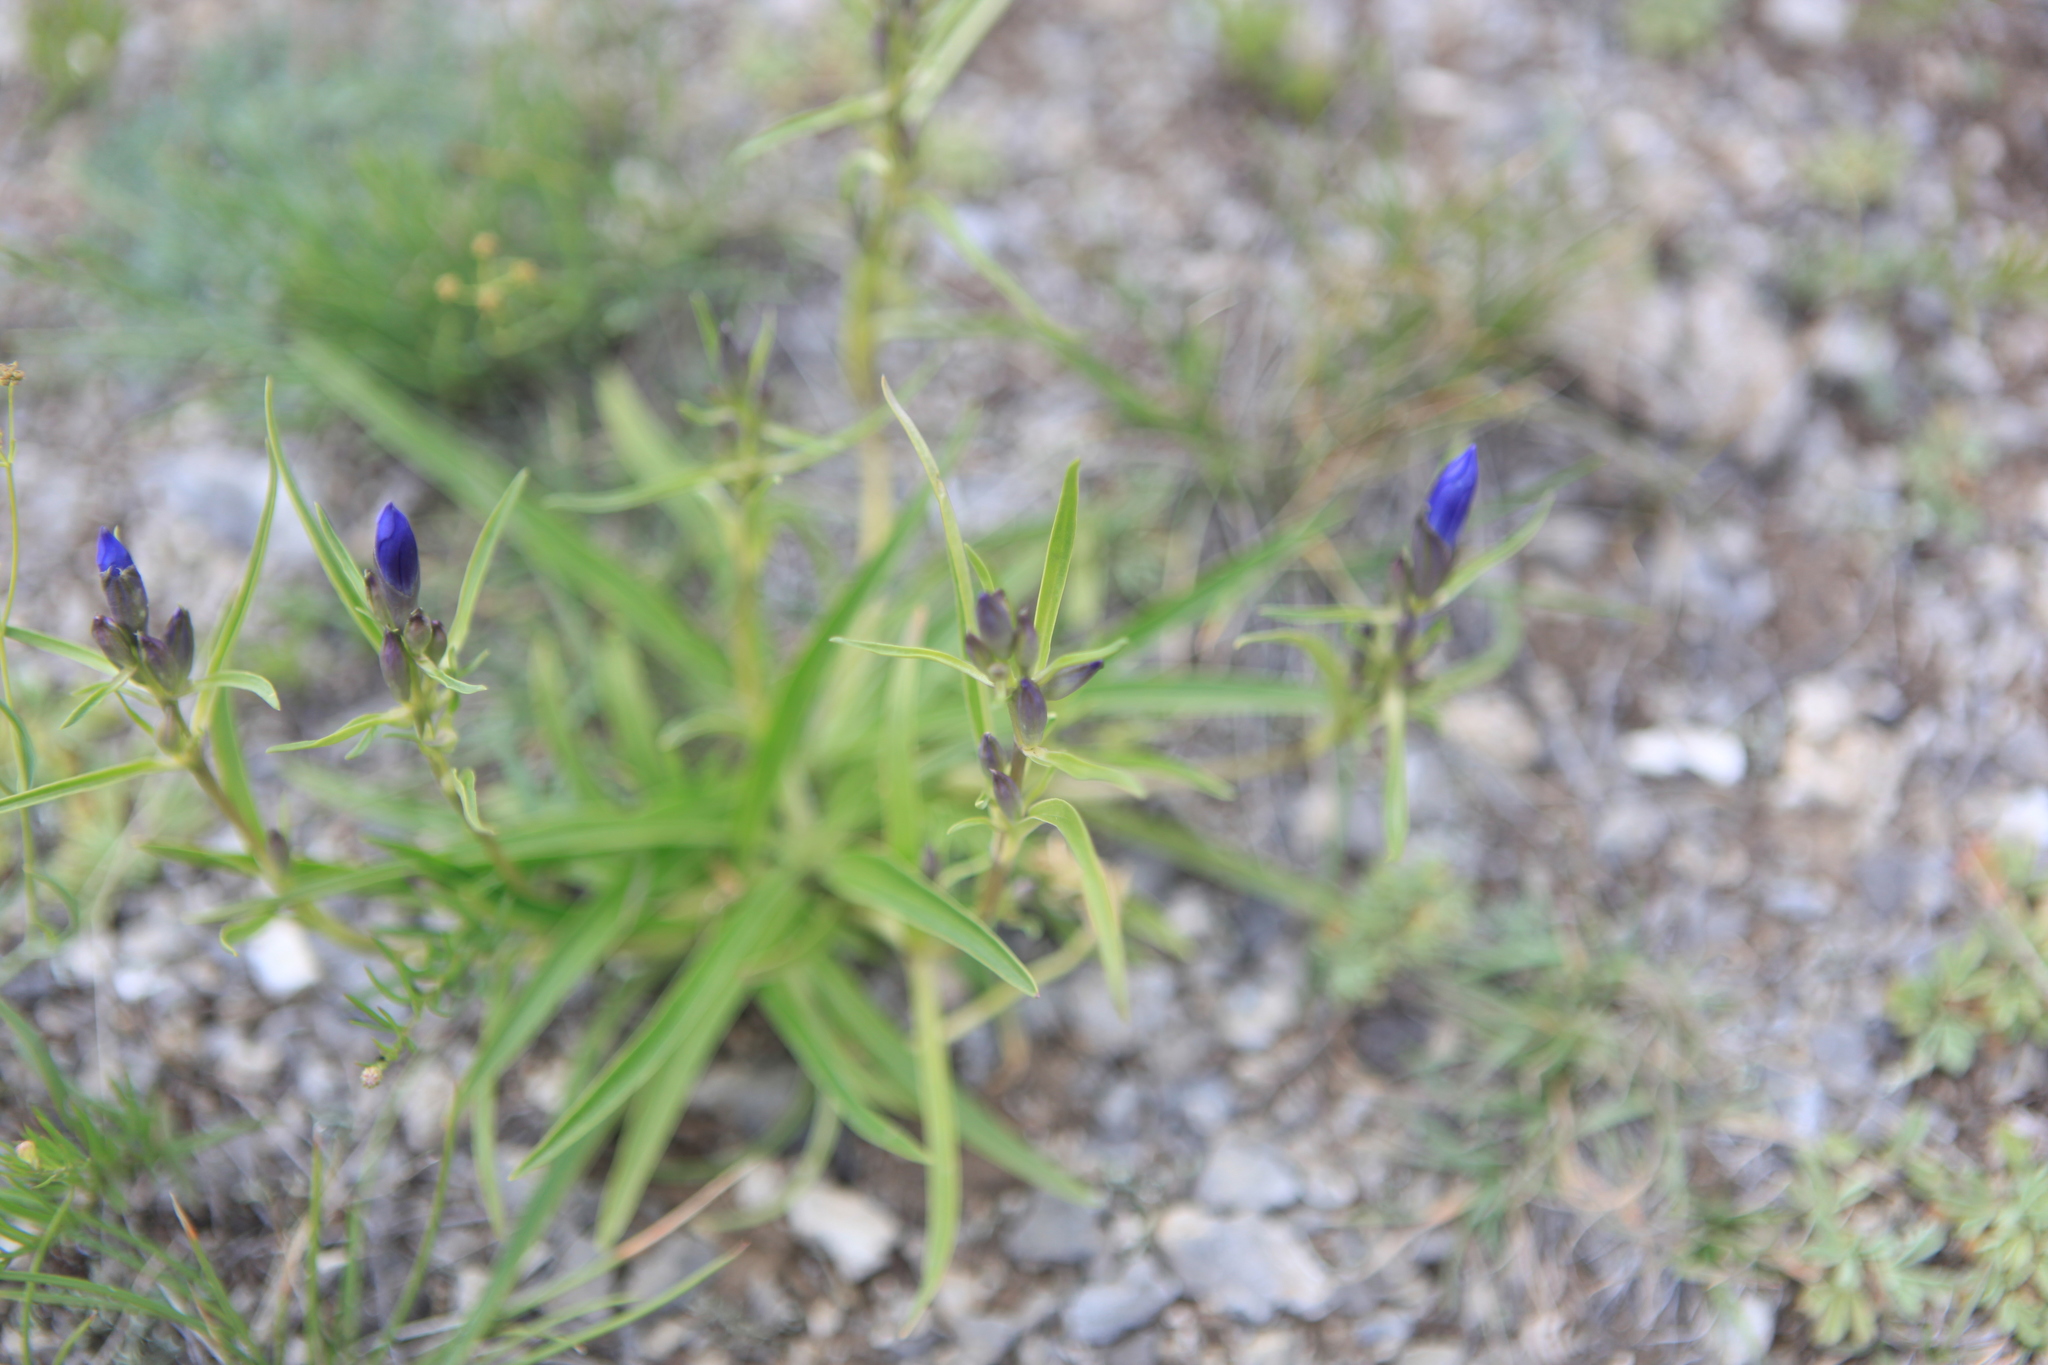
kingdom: Plantae
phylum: Tracheophyta
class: Magnoliopsida
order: Gentianales
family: Gentianaceae
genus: Gentiana
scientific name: Gentiana decumbens
